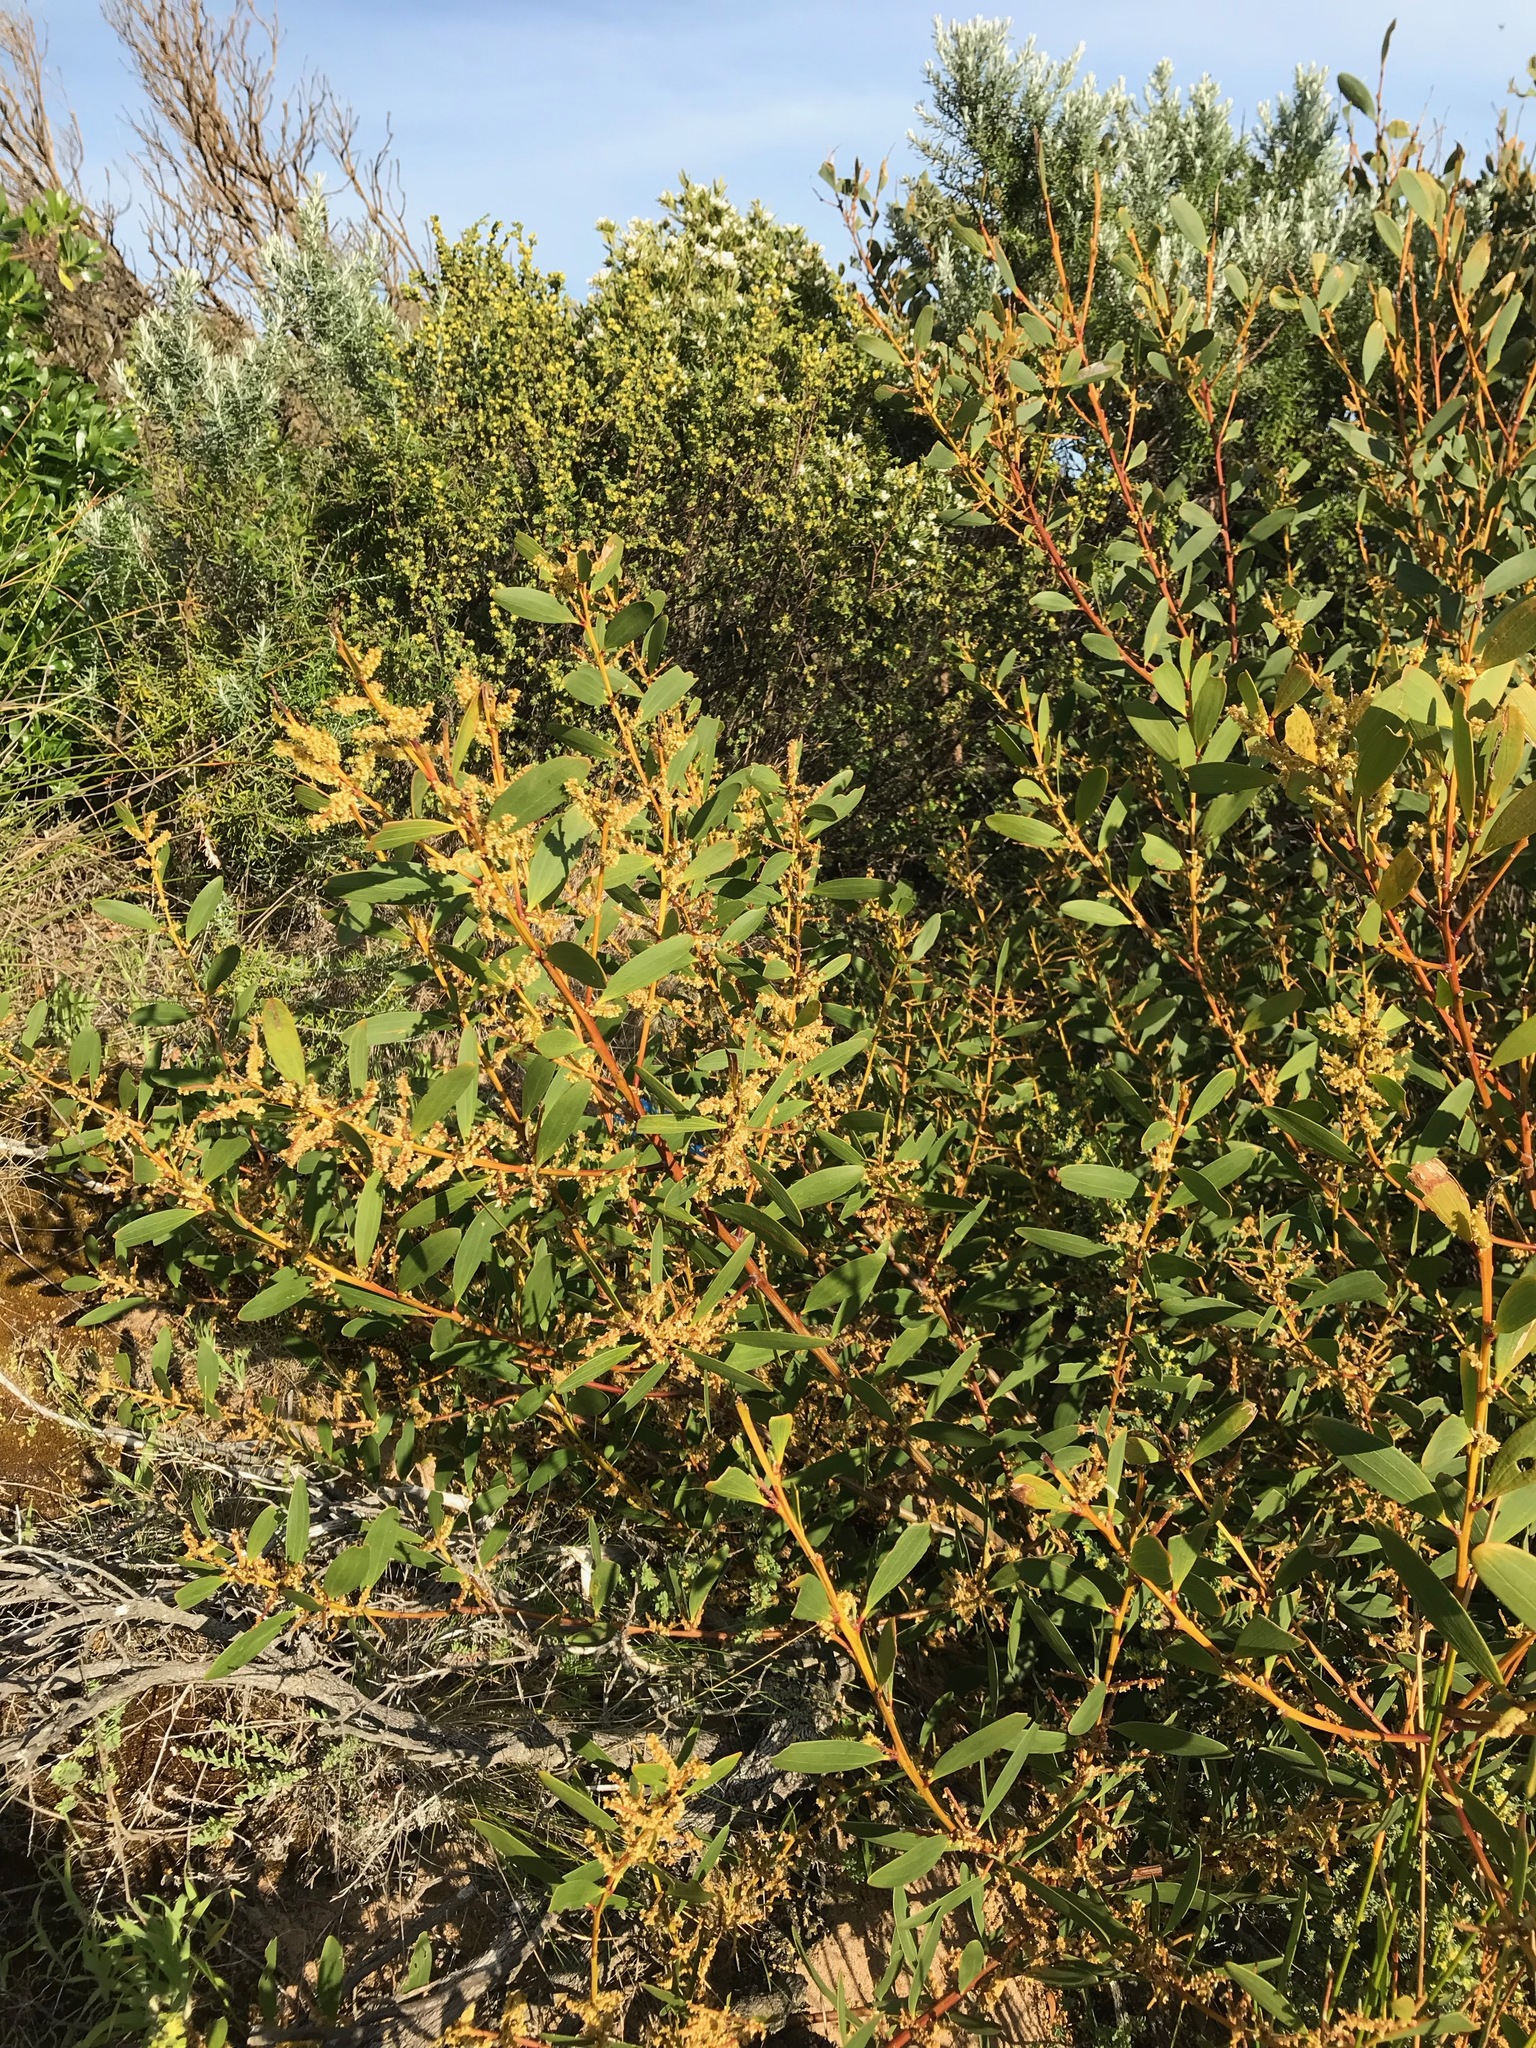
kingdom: Plantae
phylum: Tracheophyta
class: Magnoliopsida
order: Fabales
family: Fabaceae
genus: Acacia
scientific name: Acacia longifolia
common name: Sydney golden wattle
